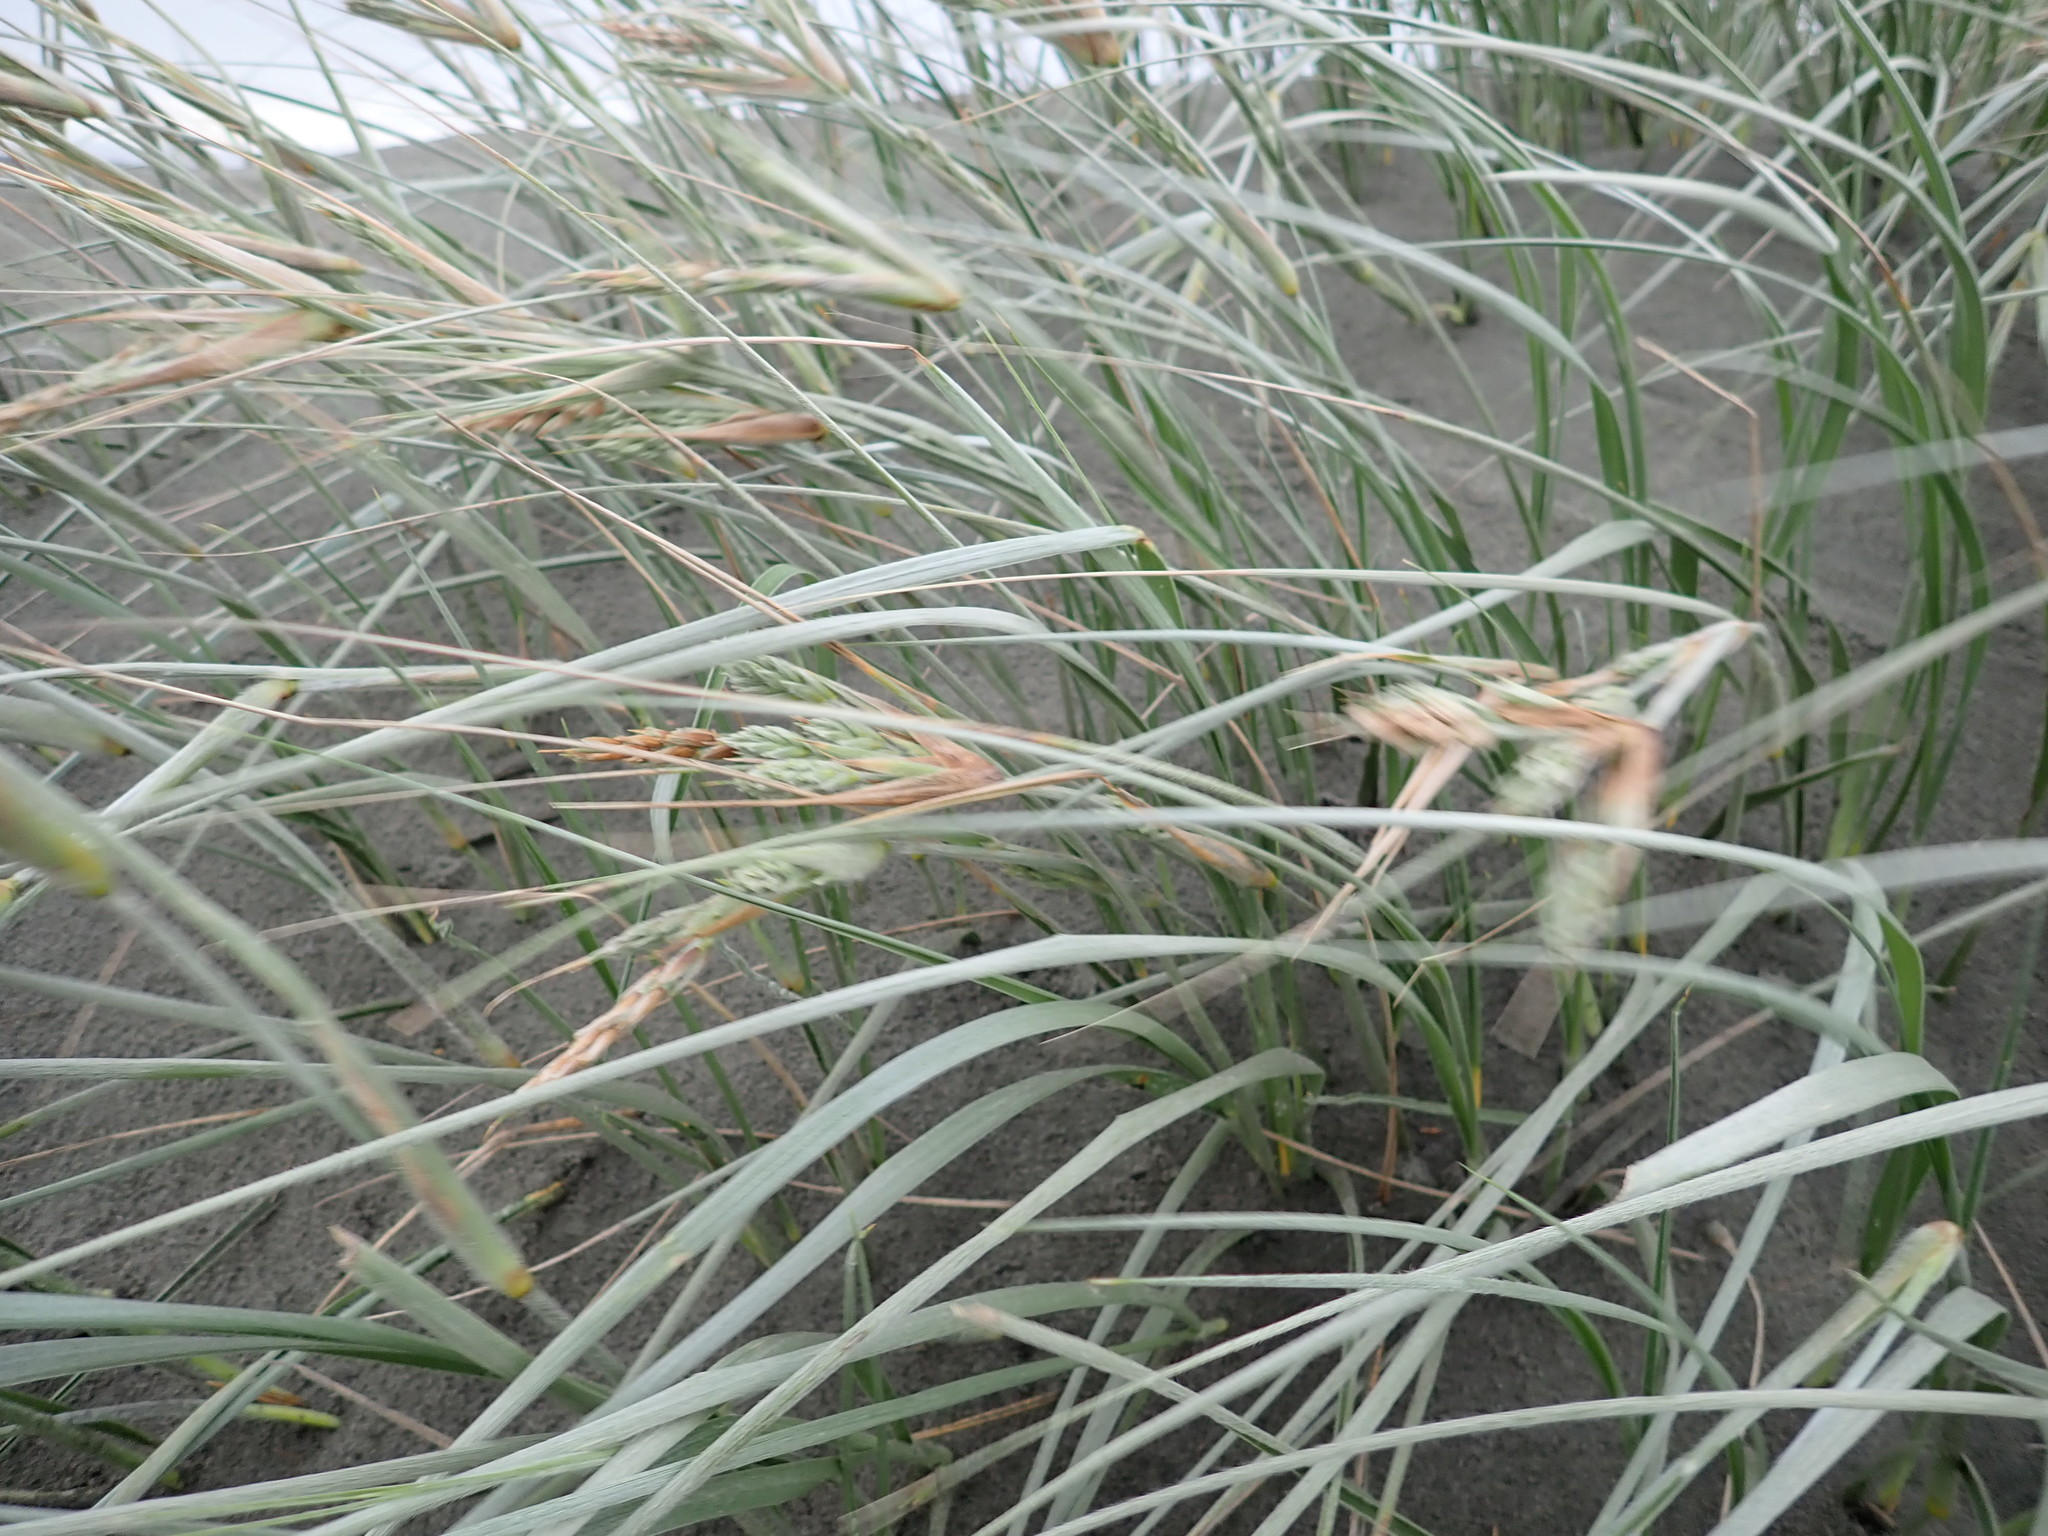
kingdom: Plantae
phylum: Tracheophyta
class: Liliopsida
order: Poales
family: Poaceae
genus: Spinifex
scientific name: Spinifex sericeus
